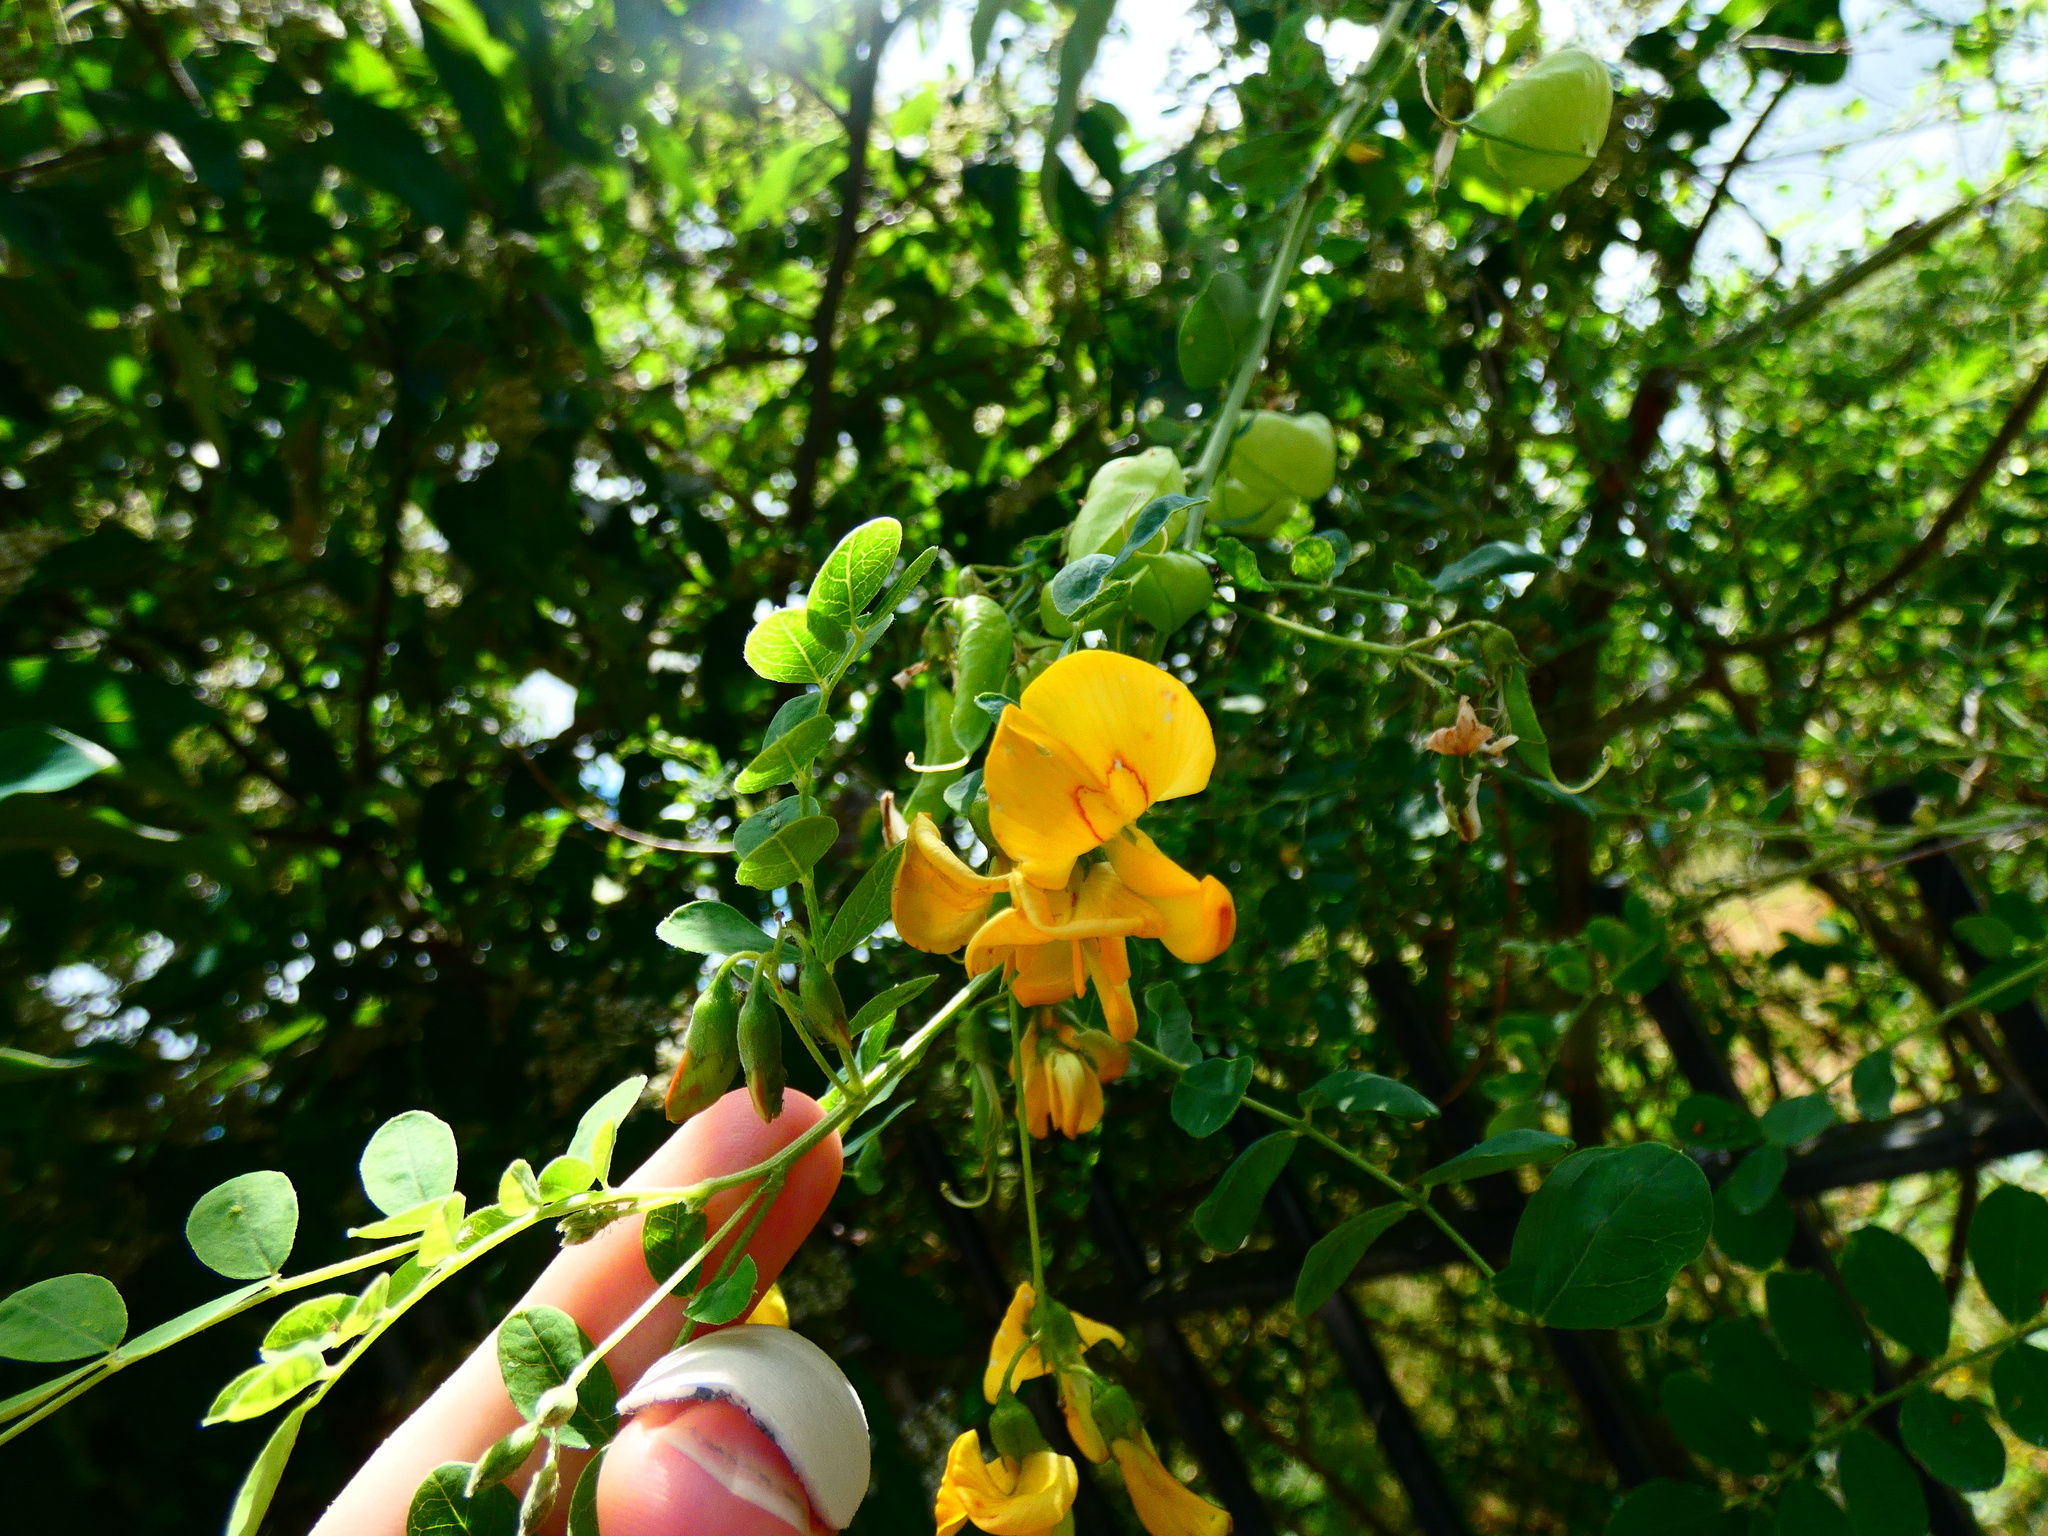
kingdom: Plantae
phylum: Tracheophyta
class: Magnoliopsida
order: Fabales
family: Fabaceae
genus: Colutea
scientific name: Colutea arborescens
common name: Bladder-senna
